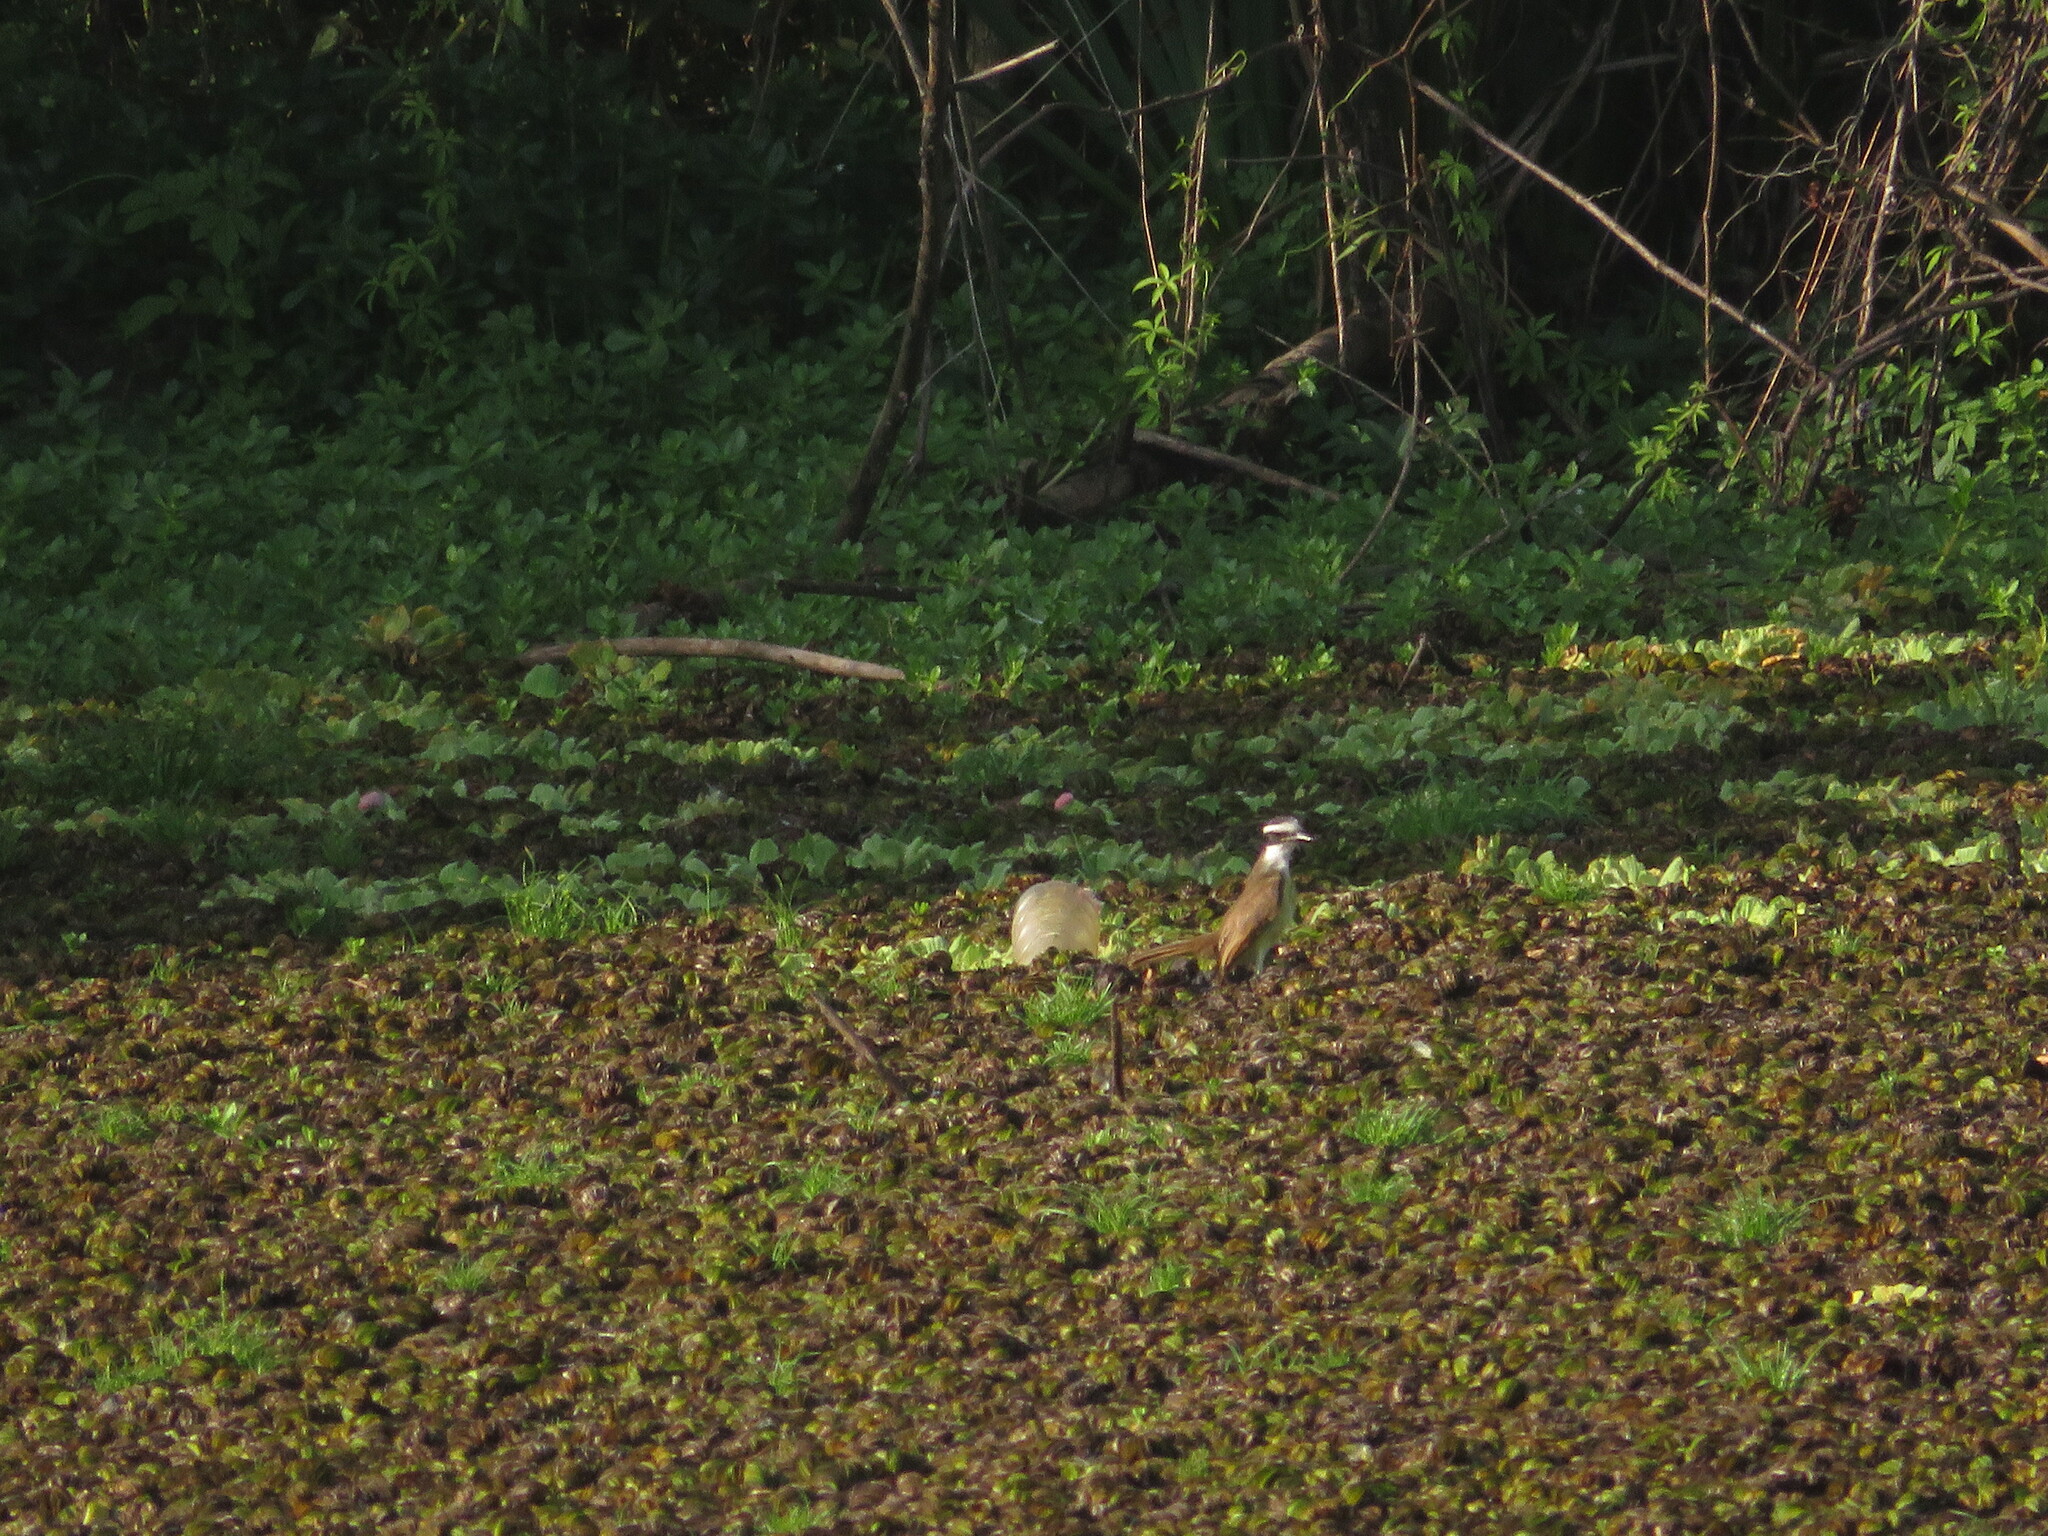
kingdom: Animalia
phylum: Chordata
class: Aves
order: Passeriformes
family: Tyrannidae
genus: Pitangus
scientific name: Pitangus sulphuratus
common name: Great kiskadee
